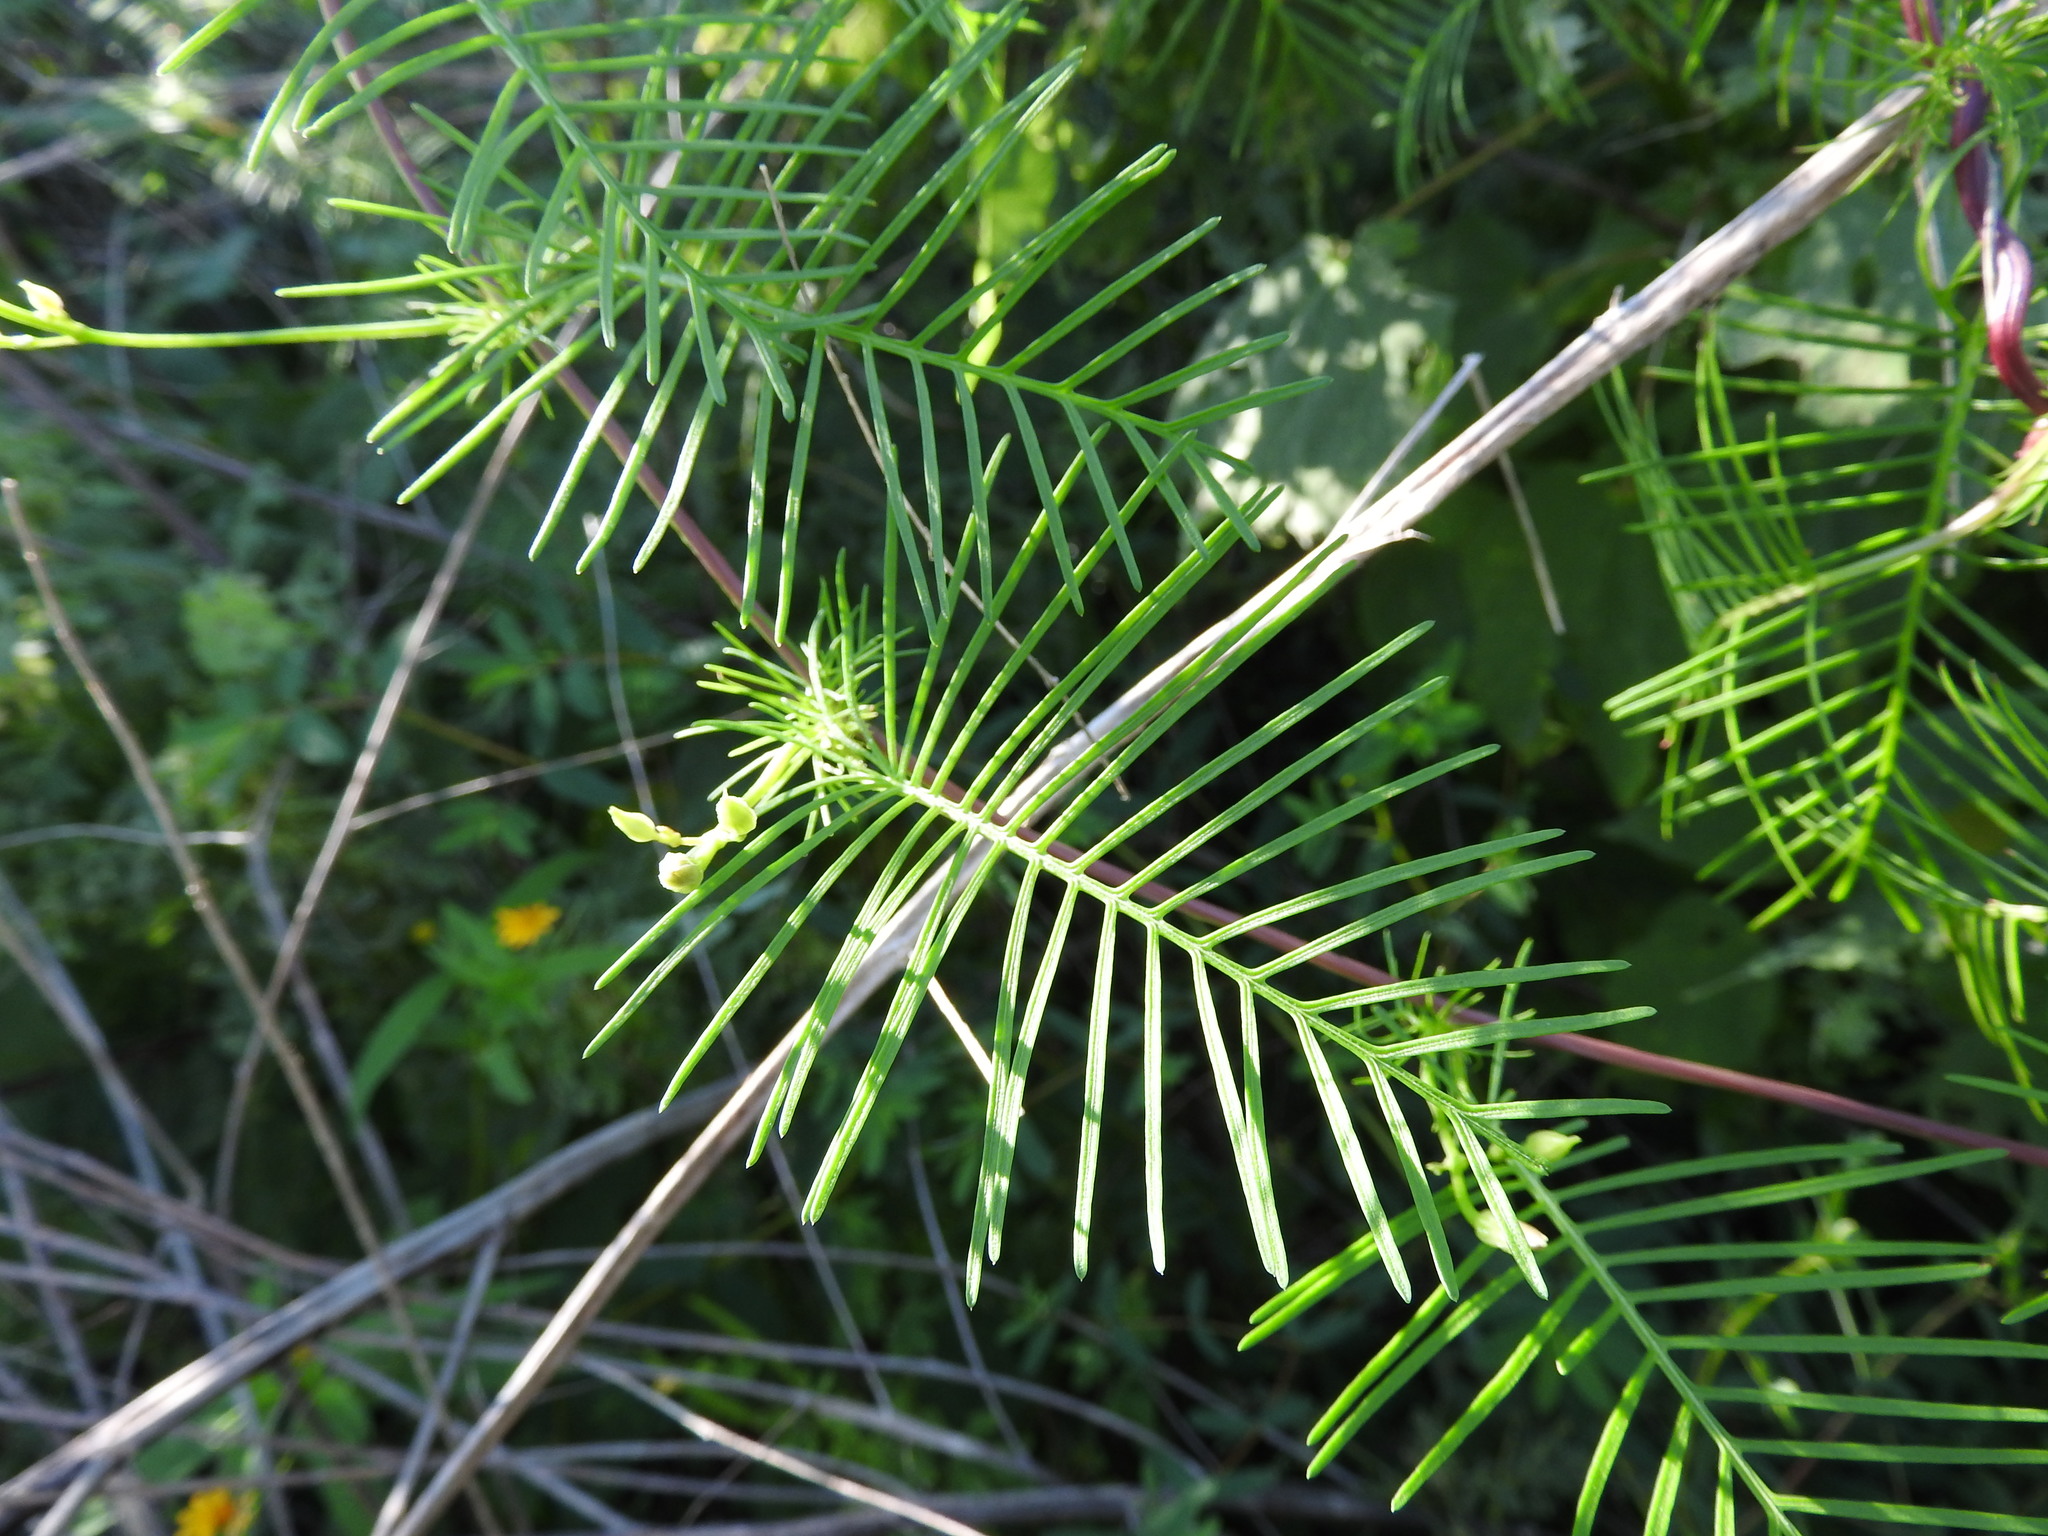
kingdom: Plantae
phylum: Tracheophyta
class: Magnoliopsida
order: Solanales
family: Convolvulaceae
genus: Ipomoea
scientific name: Ipomoea quamoclit
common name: Cypress vine
